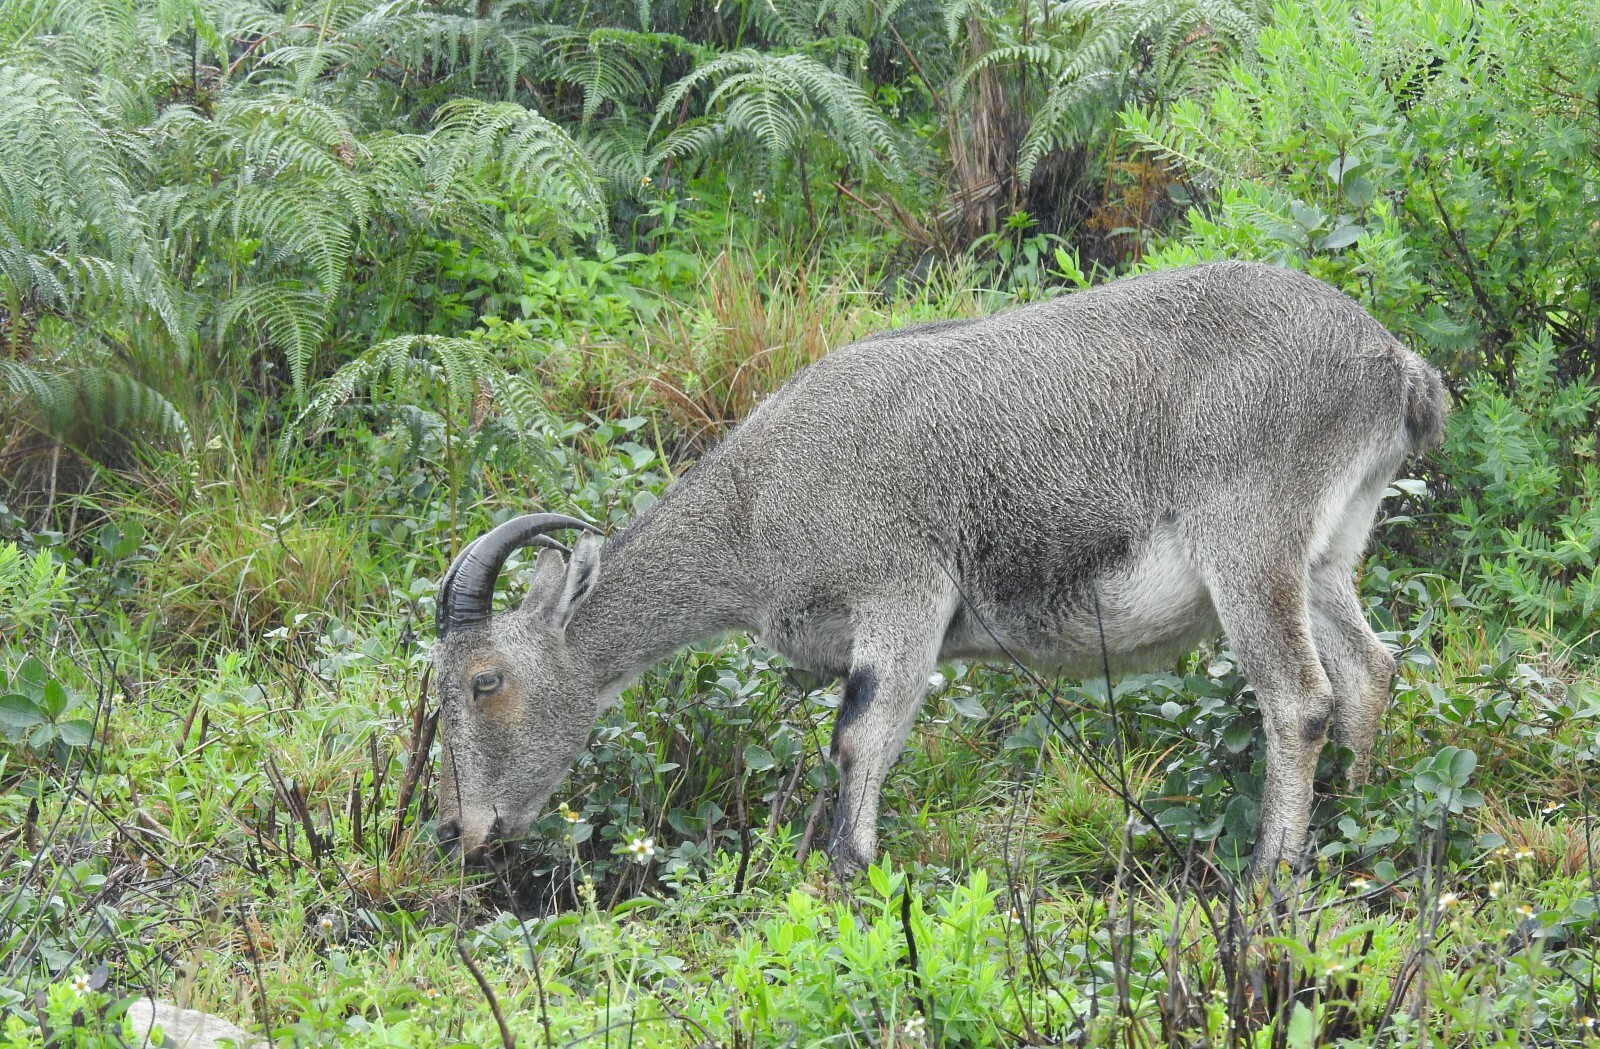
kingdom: Animalia
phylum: Chordata
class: Mammalia
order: Artiodactyla
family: Bovidae
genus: Hemitragus
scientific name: Hemitragus hylocrius
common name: Nilgiri tahr
